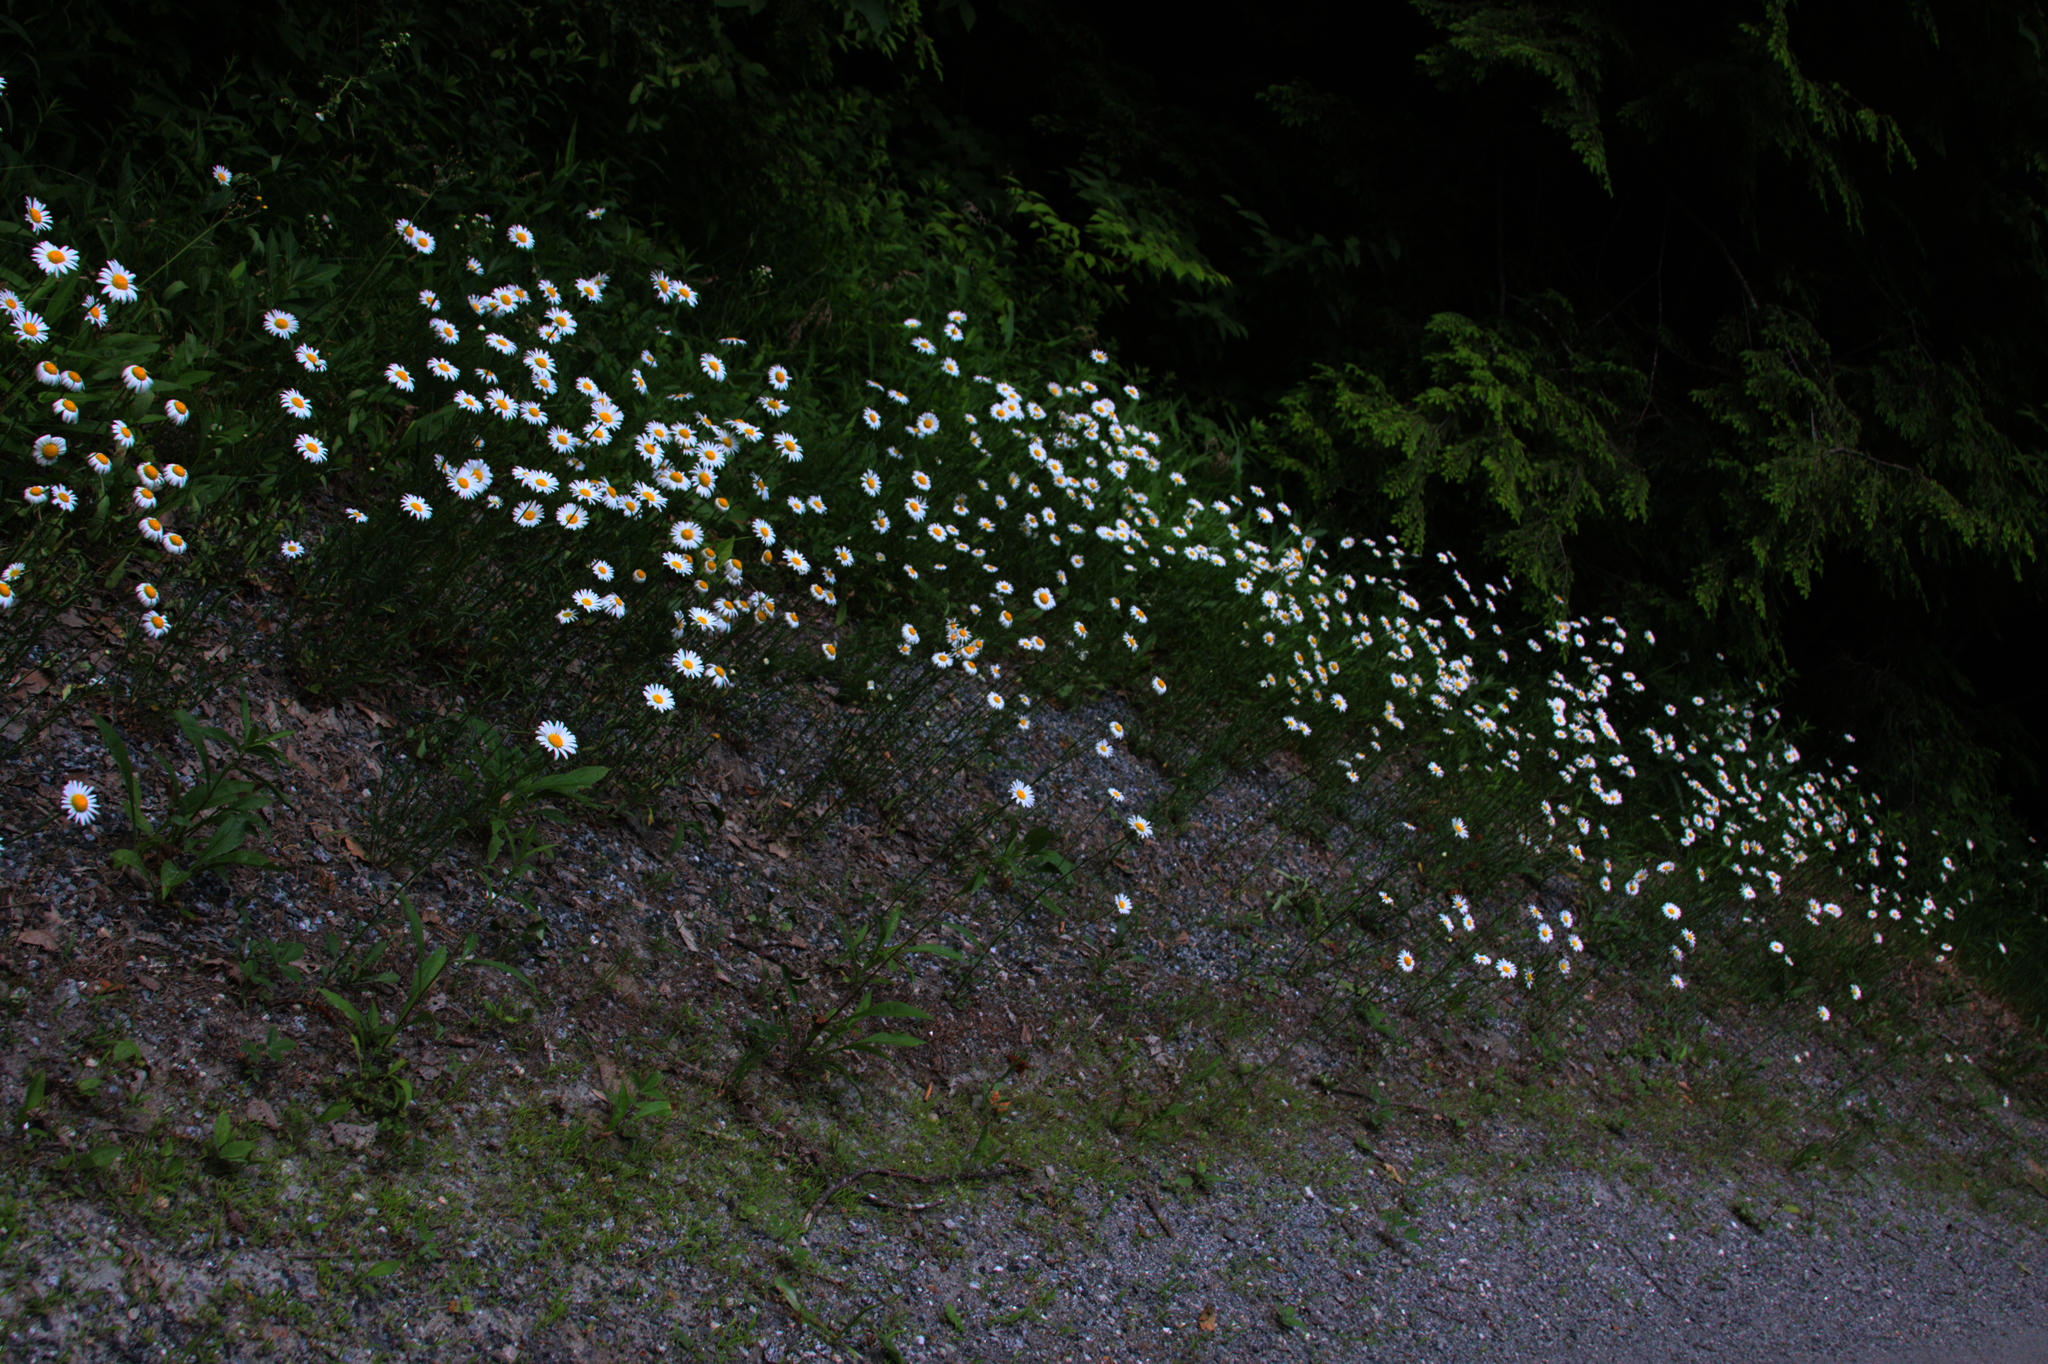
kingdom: Plantae
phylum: Tracheophyta
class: Magnoliopsida
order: Asterales
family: Asteraceae
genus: Leucanthemum
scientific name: Leucanthemum vulgare
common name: Oxeye daisy
